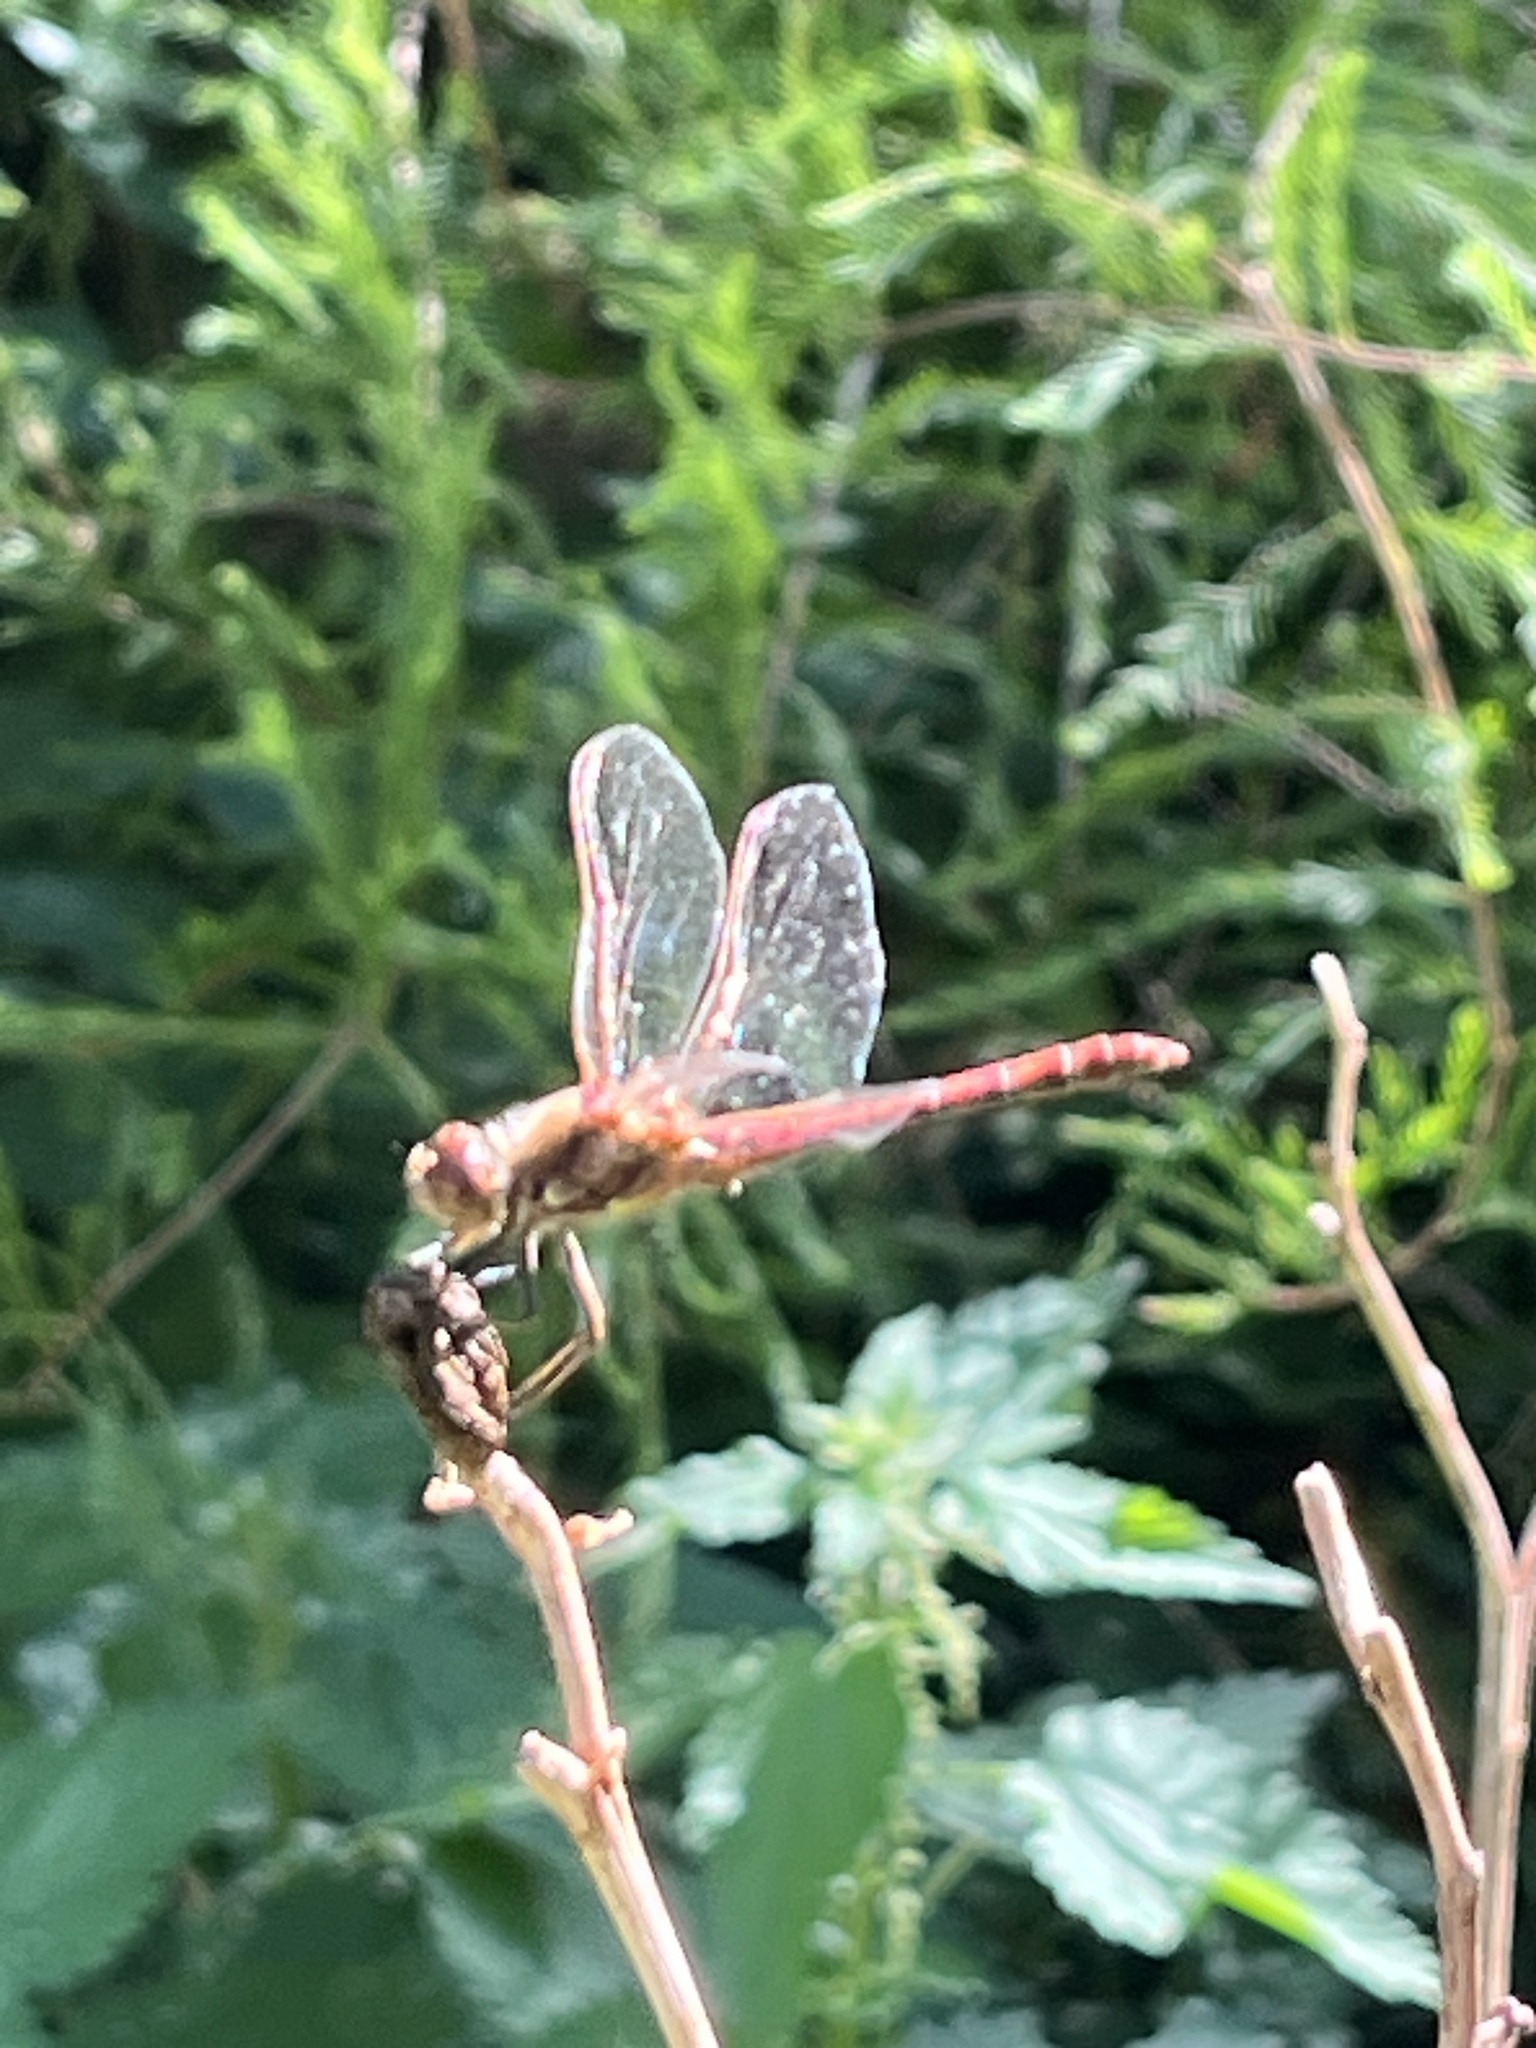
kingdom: Animalia
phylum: Arthropoda
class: Insecta
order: Odonata
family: Libellulidae
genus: Sympetrum
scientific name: Sympetrum striolatum
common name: Common darter
